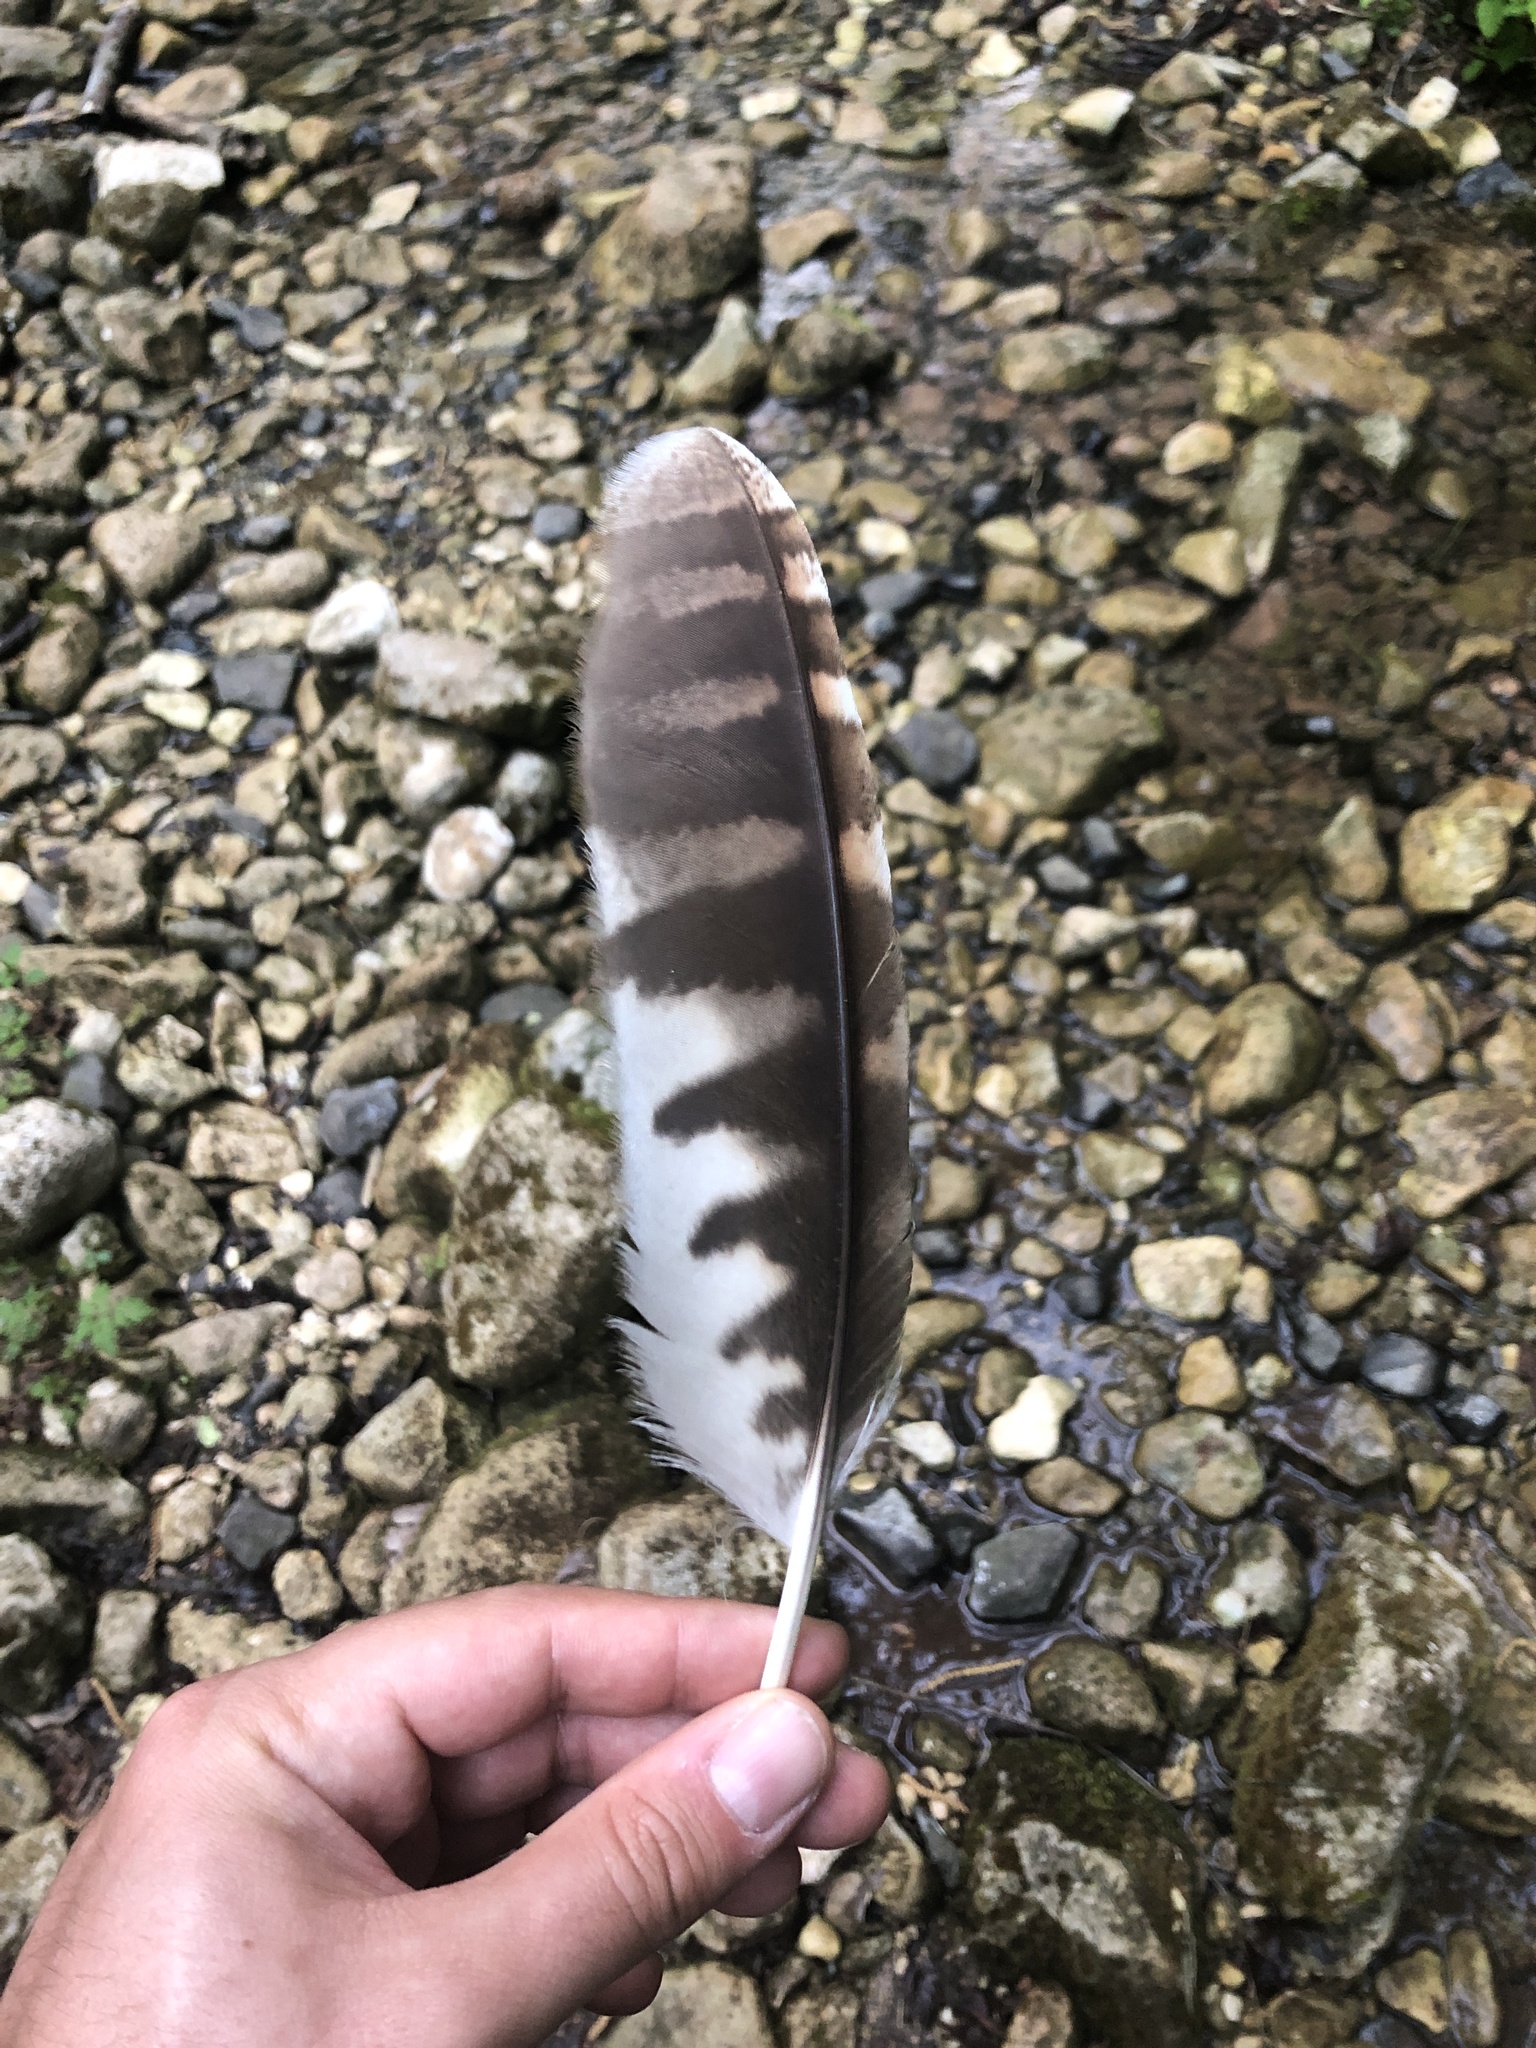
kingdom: Animalia
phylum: Chordata
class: Aves
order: Strigiformes
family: Strigidae
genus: Strix
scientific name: Strix aluco
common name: Tawny owl
